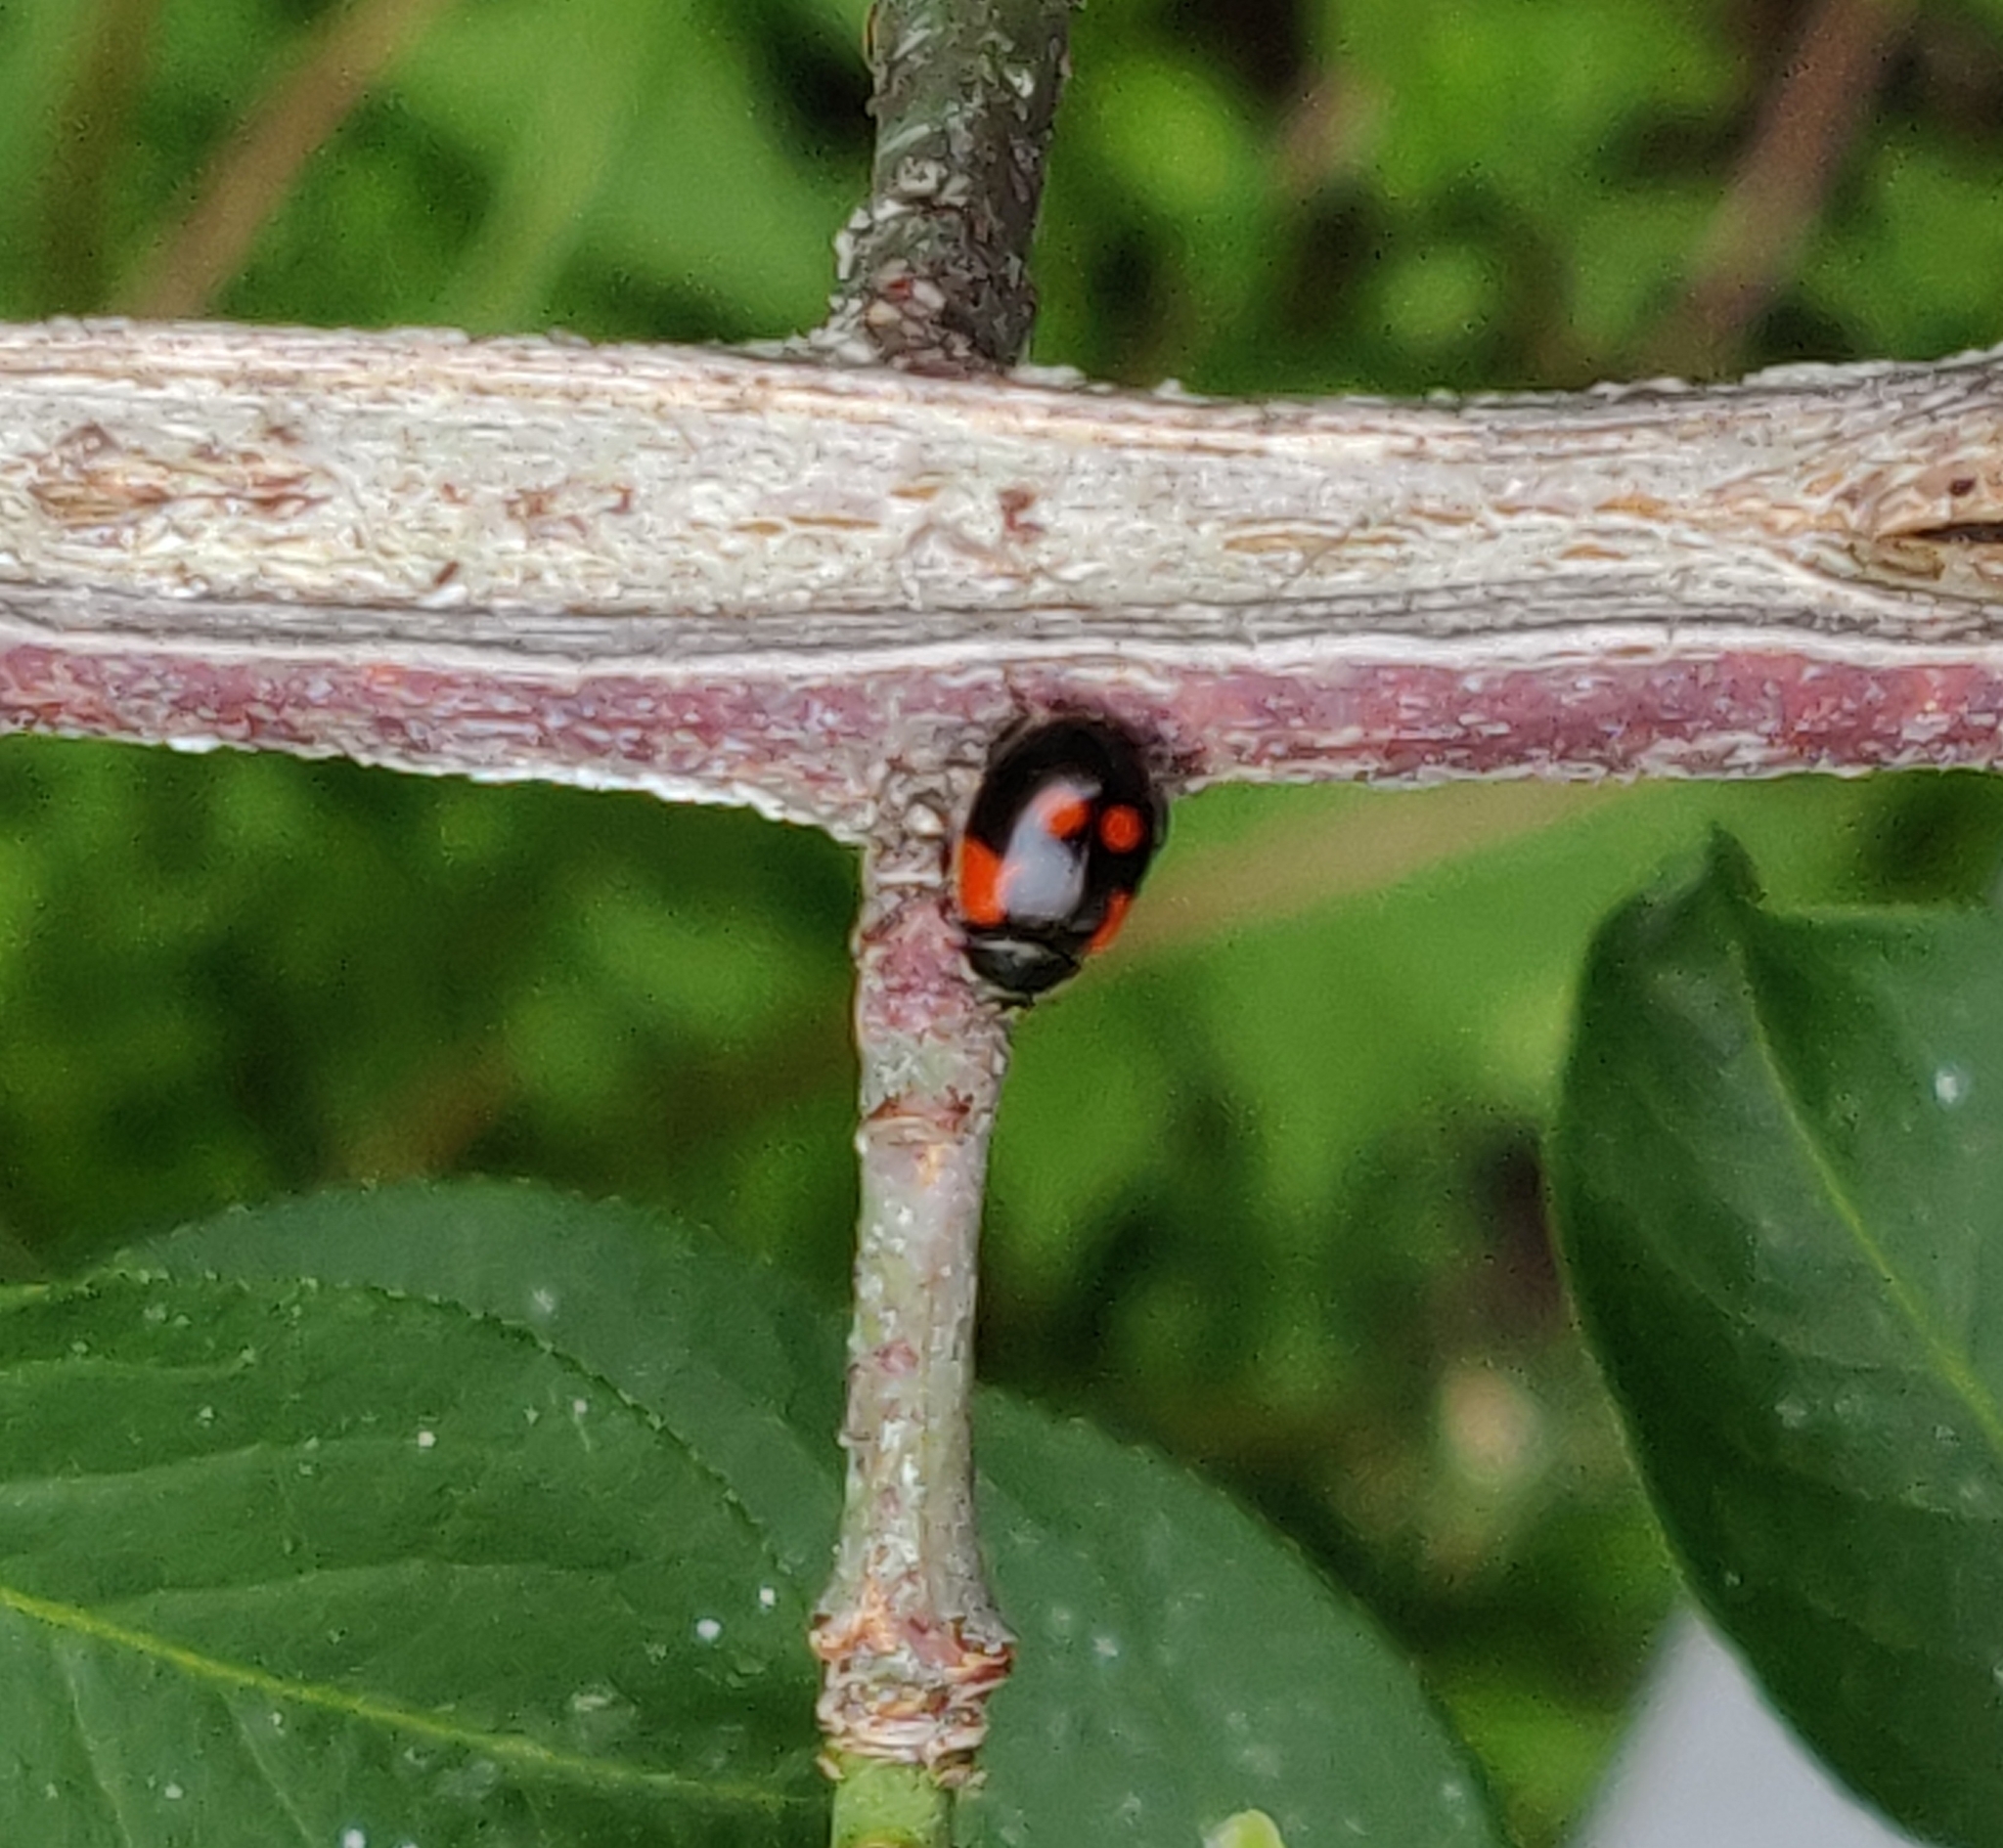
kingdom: Animalia
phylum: Arthropoda
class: Insecta
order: Coleoptera
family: Coccinellidae
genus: Adalia
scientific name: Adalia bipunctata
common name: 2-spot ladybird
